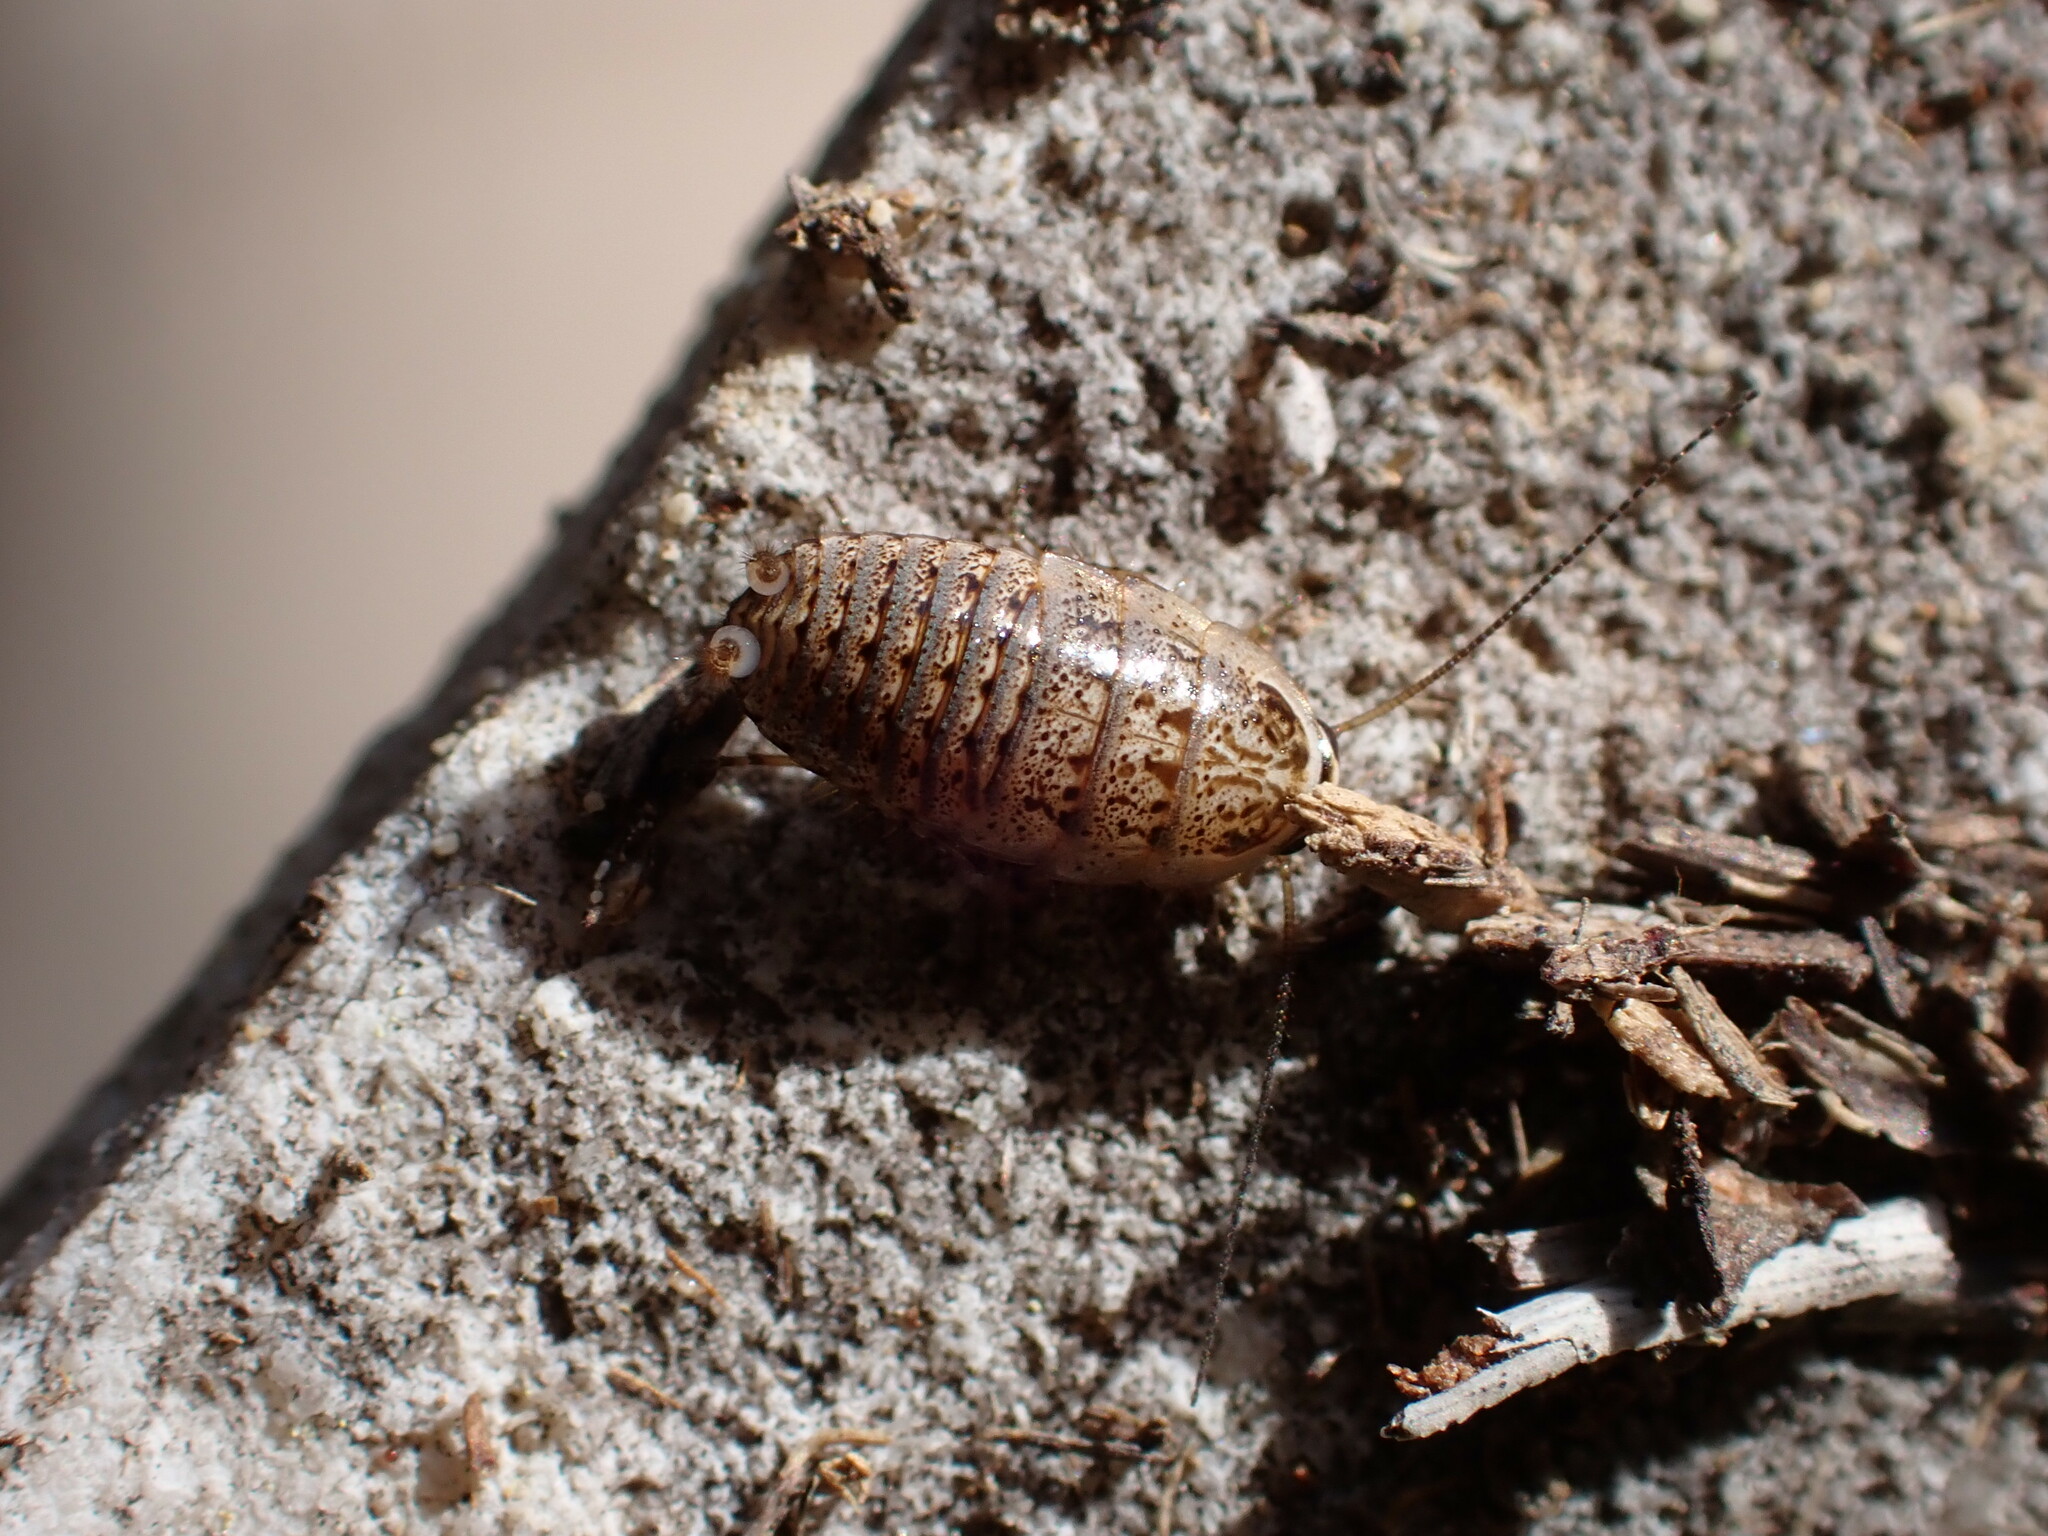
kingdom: Animalia
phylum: Arthropoda
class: Insecta
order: Blattodea
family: Ectobiidae
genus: Phyllodromica
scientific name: Phyllodromica subaptera
